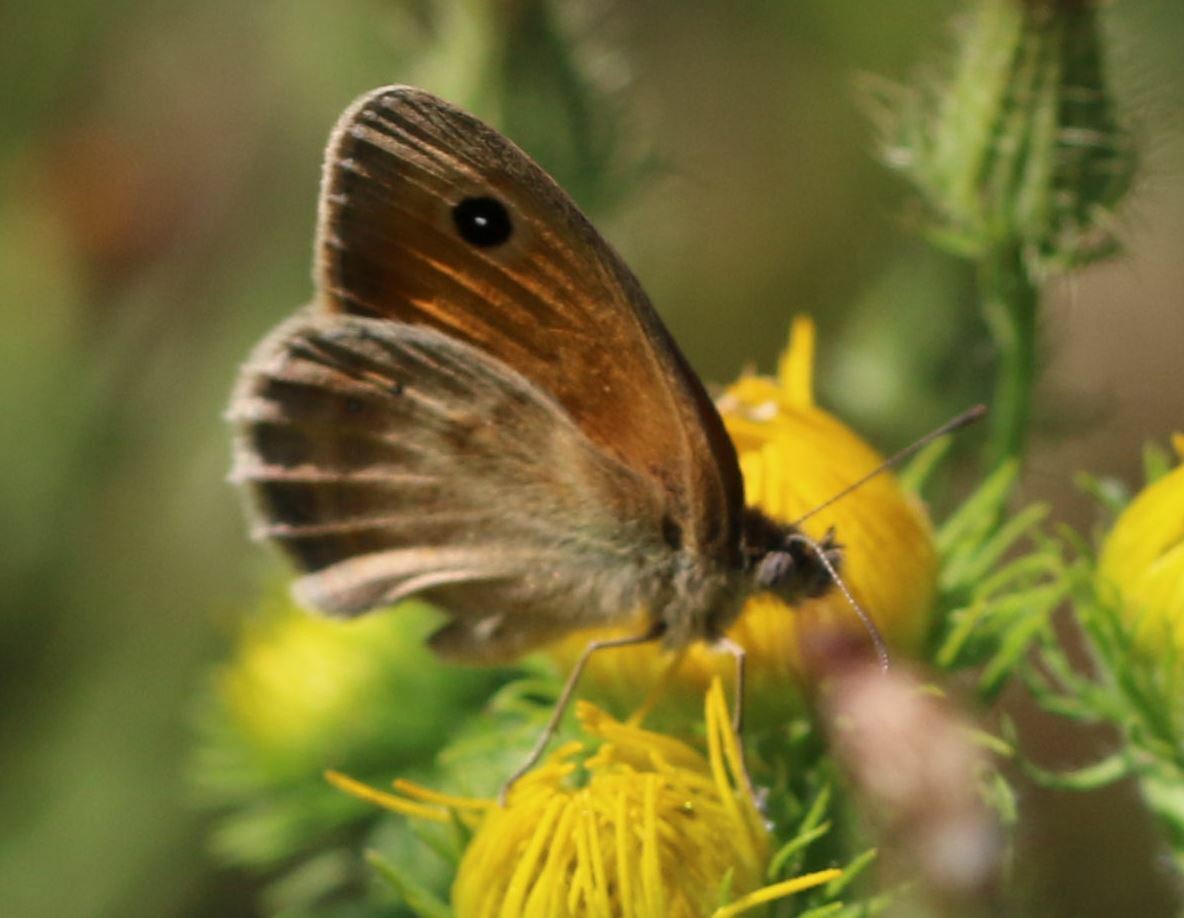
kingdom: Animalia
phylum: Arthropoda
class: Insecta
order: Lepidoptera
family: Nymphalidae
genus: Coenonympha
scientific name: Coenonympha pamphilus
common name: Small heath
